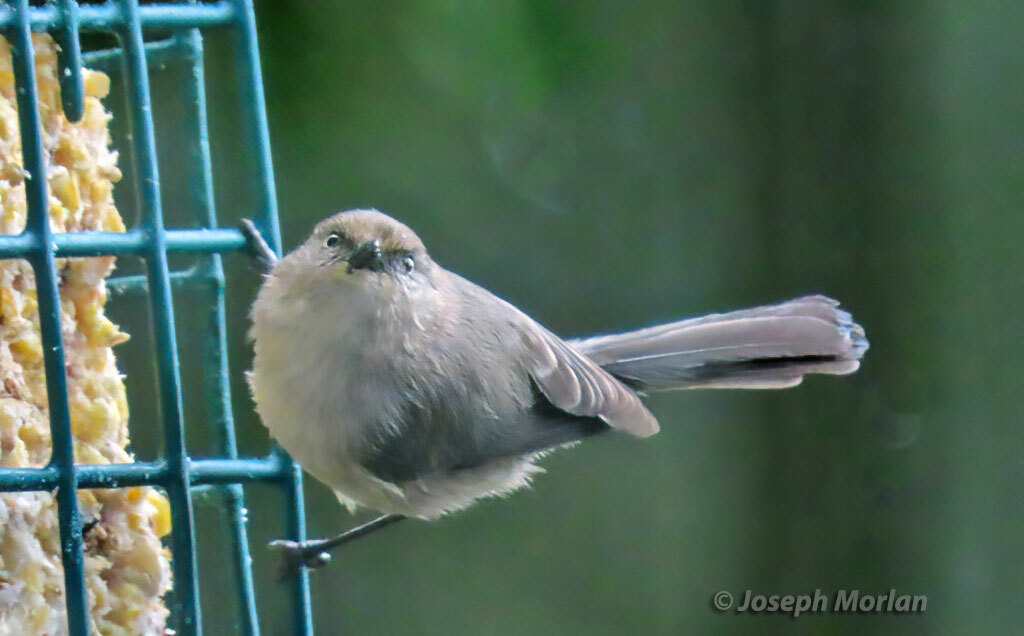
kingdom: Animalia
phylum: Chordata
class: Aves
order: Passeriformes
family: Aegithalidae
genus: Psaltriparus
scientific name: Psaltriparus minimus
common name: American bushtit
